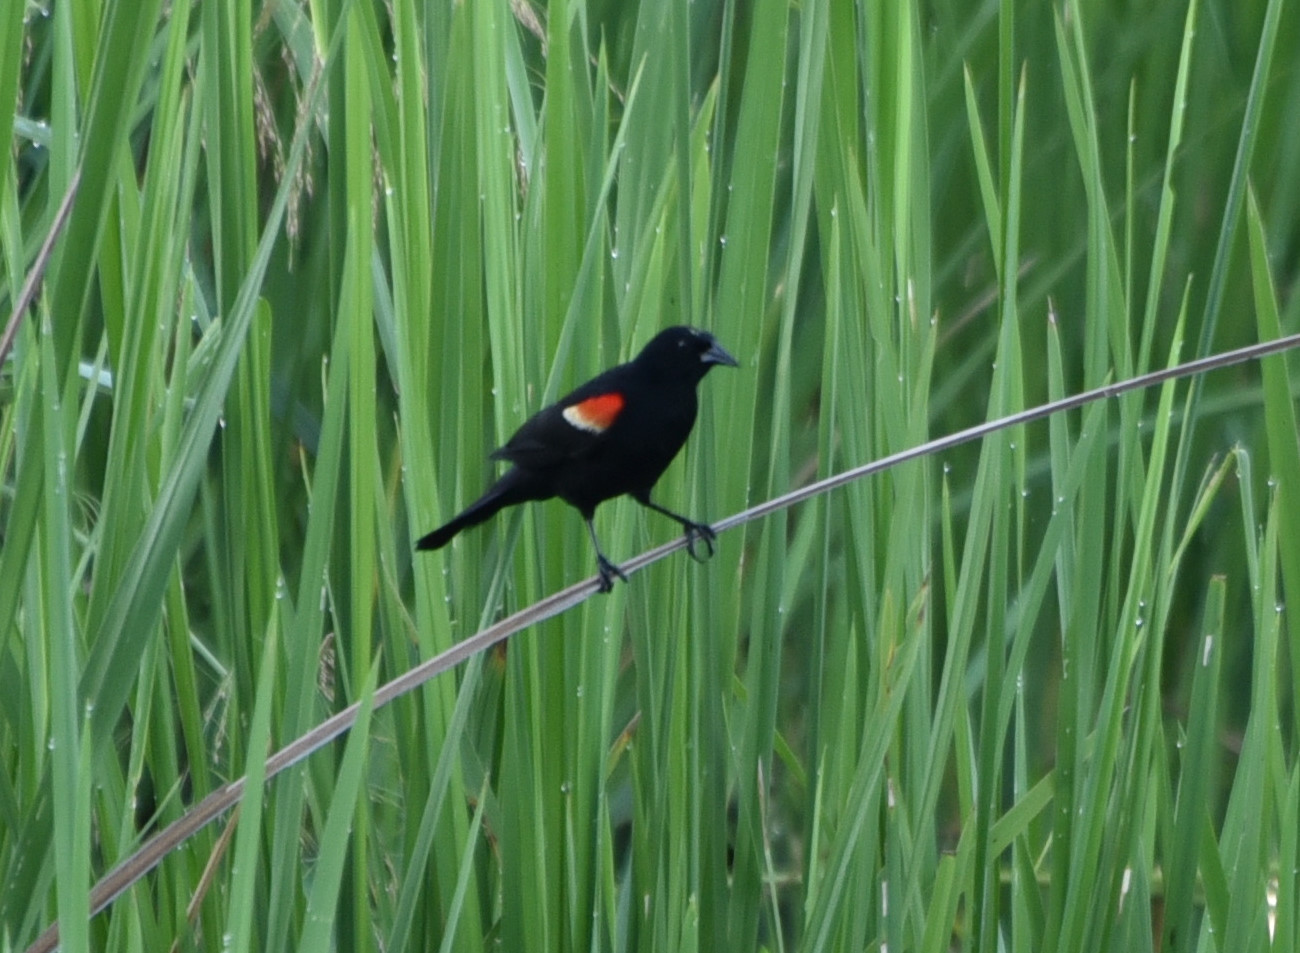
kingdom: Animalia
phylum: Chordata
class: Aves
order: Passeriformes
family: Icteridae
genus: Agelaius
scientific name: Agelaius phoeniceus
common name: Red-winged blackbird
